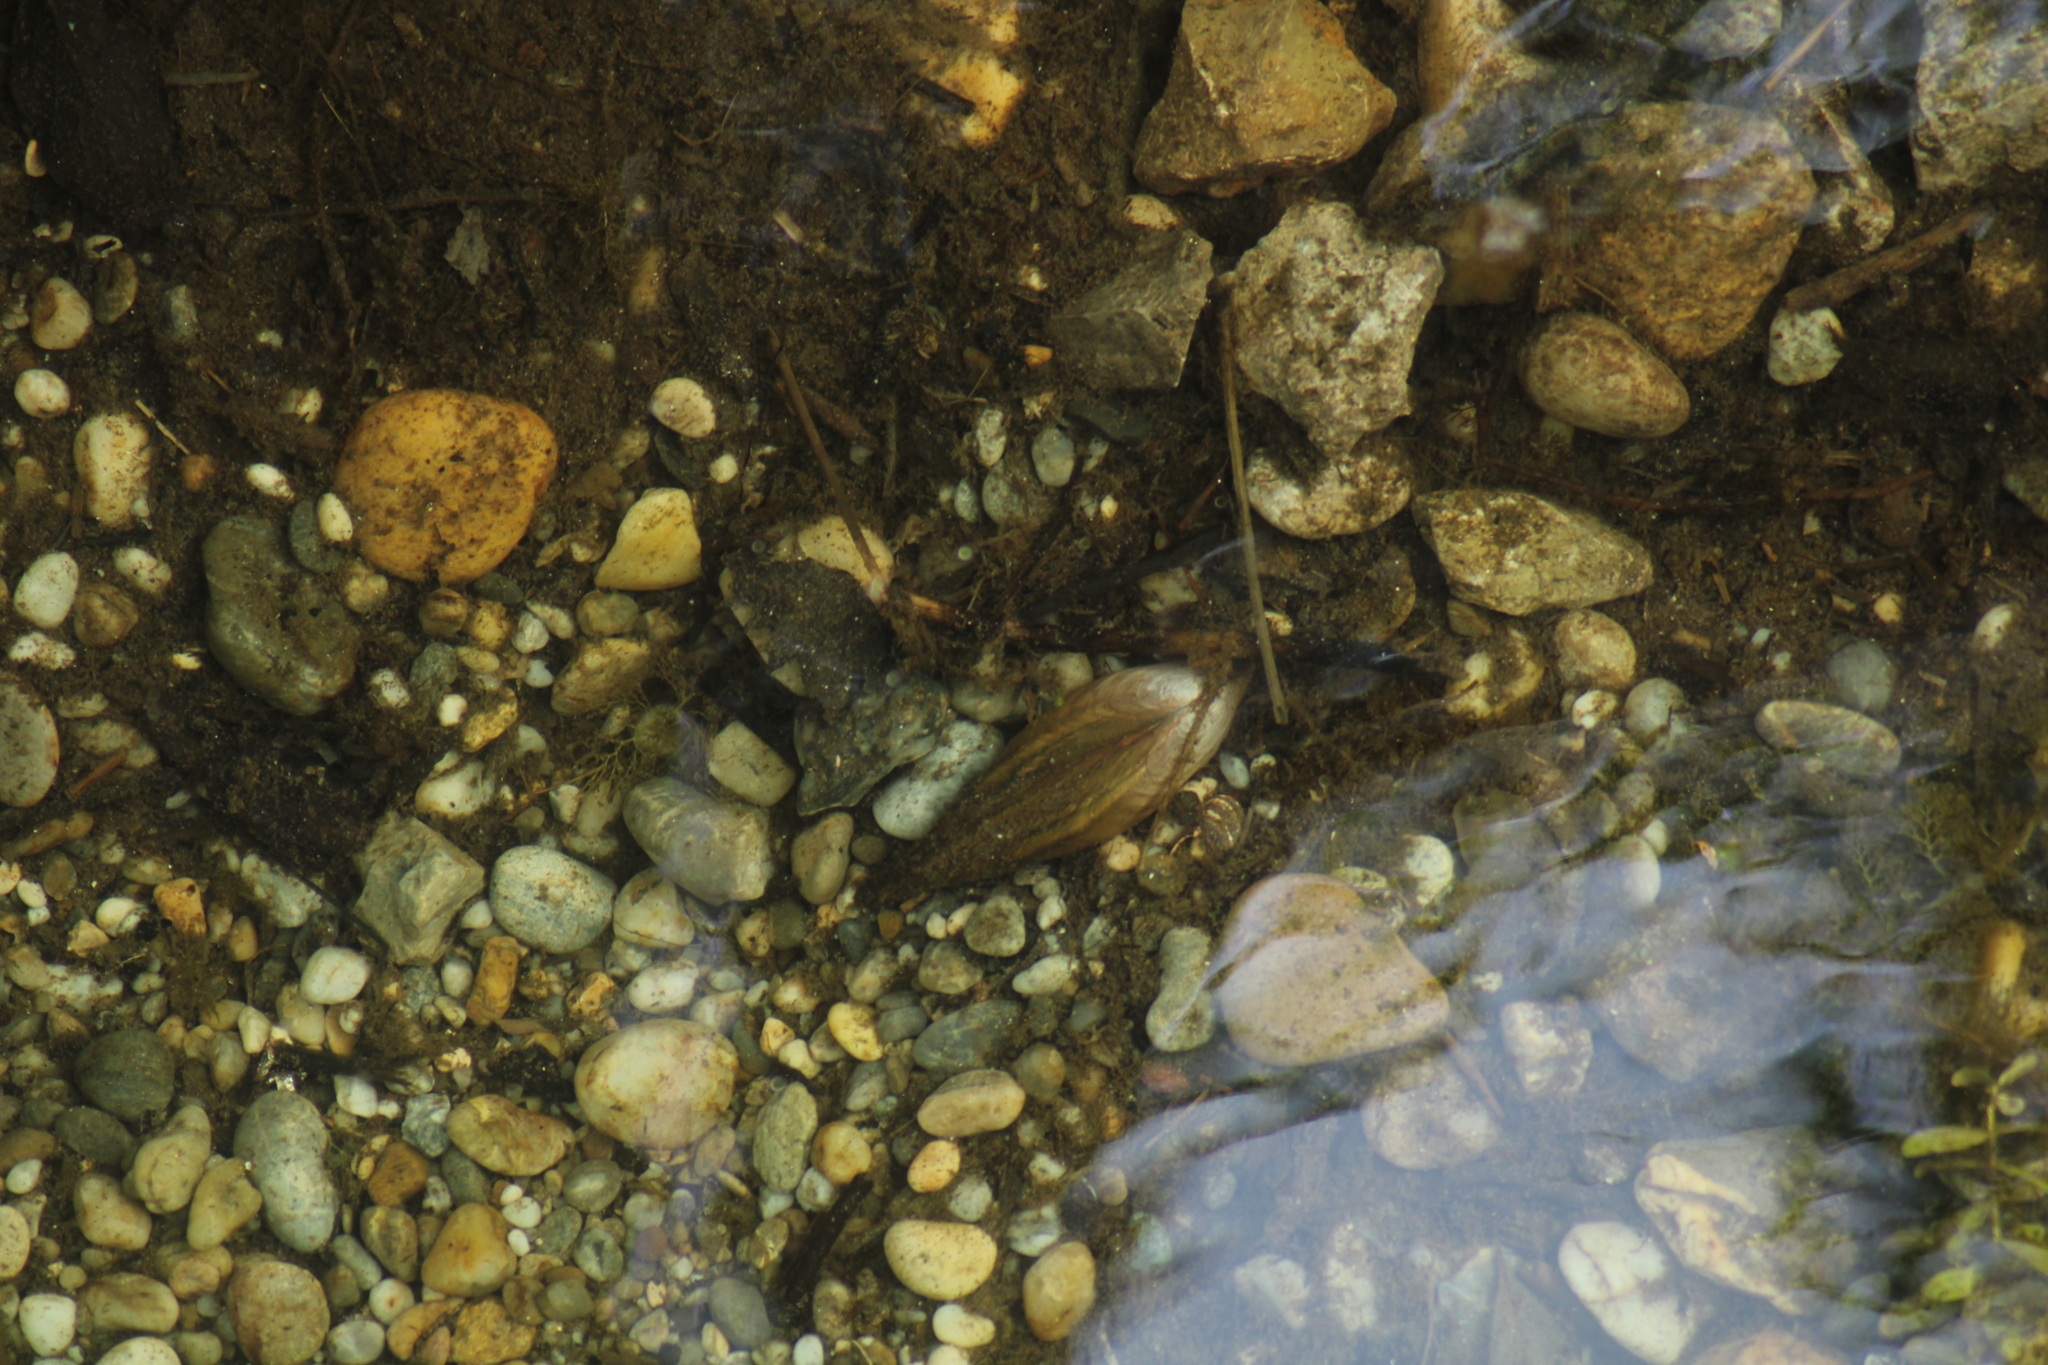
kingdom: Animalia
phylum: Mollusca
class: Bivalvia
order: Unionida
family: Unionidae
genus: Anodonta
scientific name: Anodonta anatina
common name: Duck mussel
